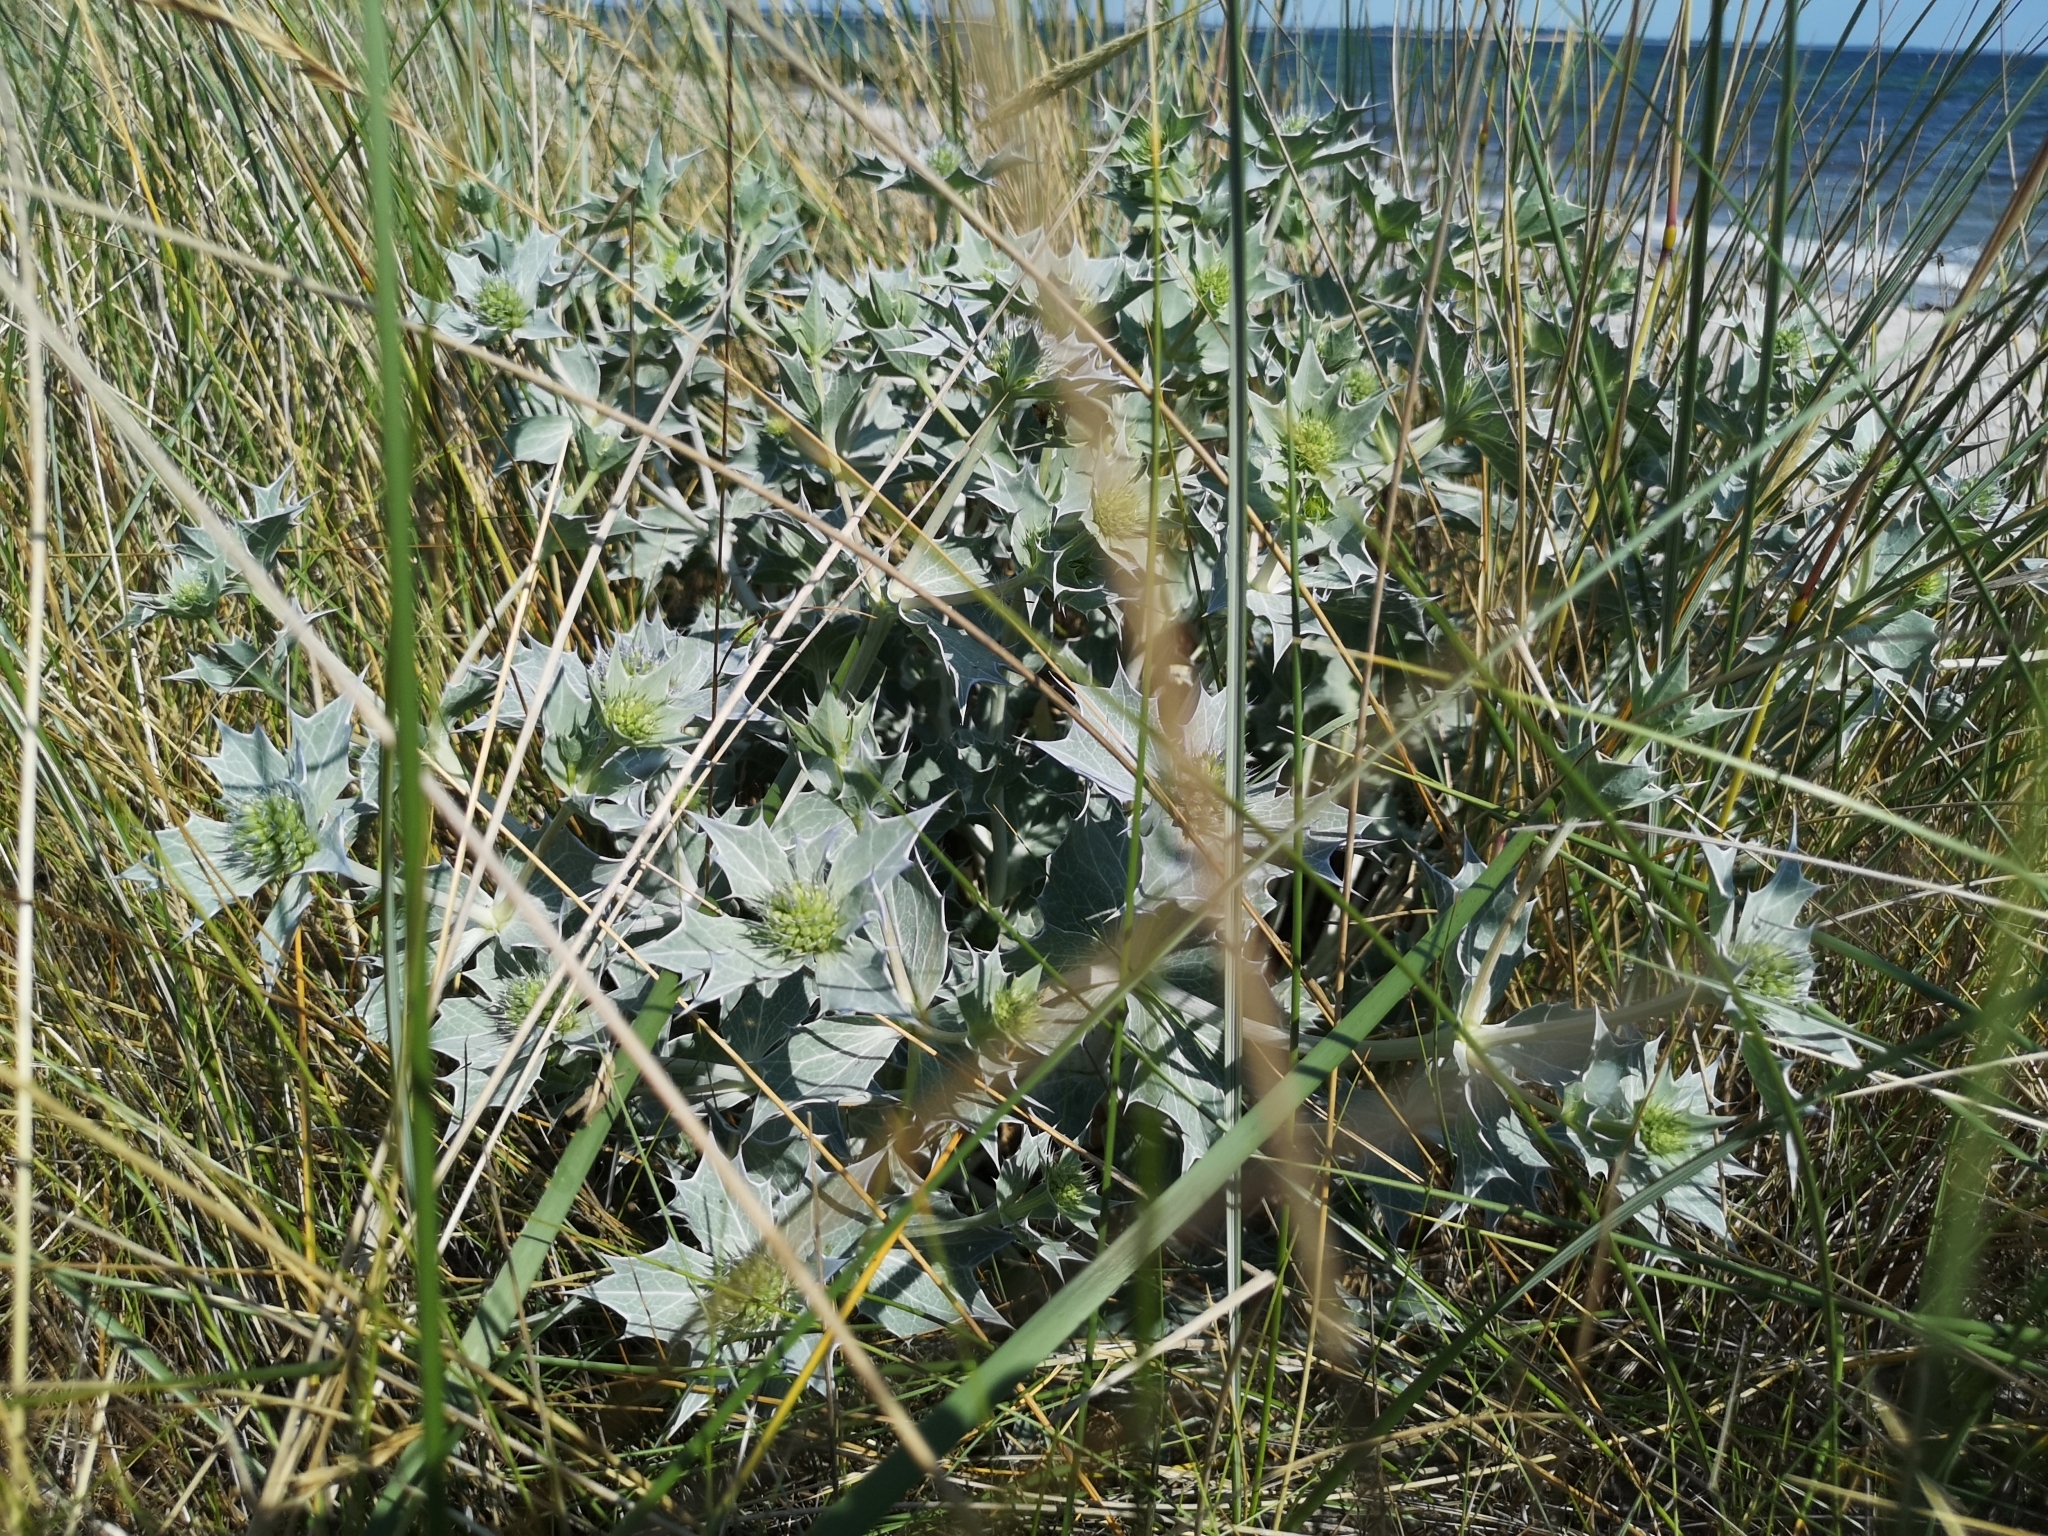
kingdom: Plantae
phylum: Tracheophyta
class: Magnoliopsida
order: Apiales
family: Apiaceae
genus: Eryngium
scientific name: Eryngium maritimum
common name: Sea-holly
